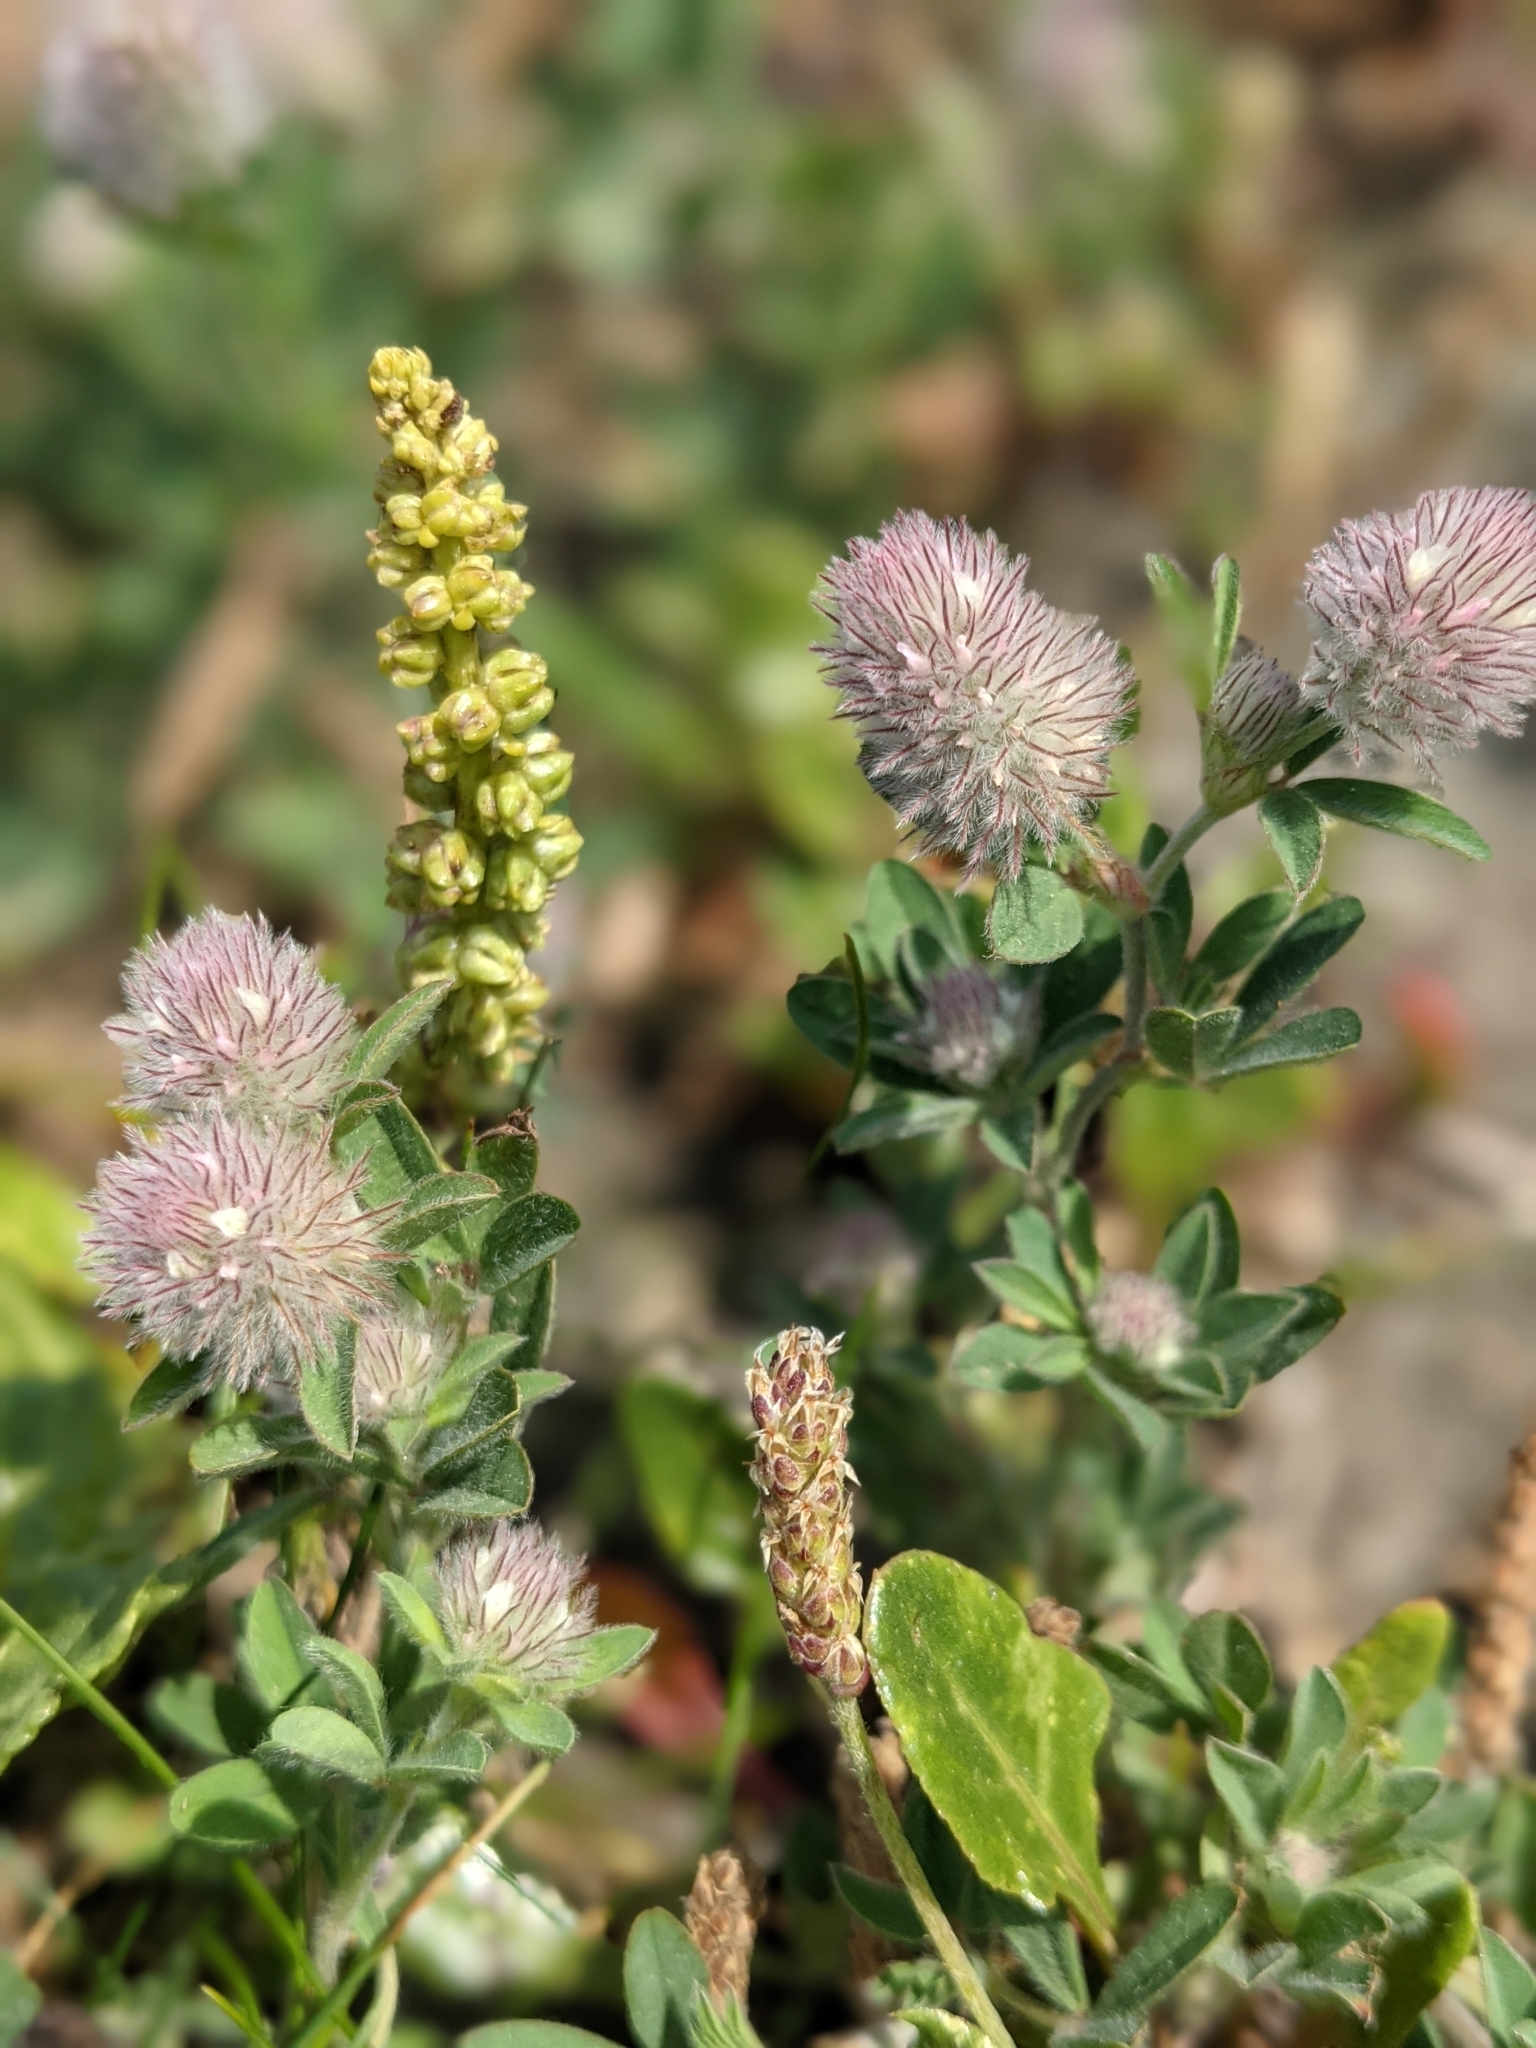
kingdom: Plantae
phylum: Tracheophyta
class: Magnoliopsida
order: Fabales
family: Fabaceae
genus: Trifolium
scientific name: Trifolium arvense
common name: Hare's-foot clover
